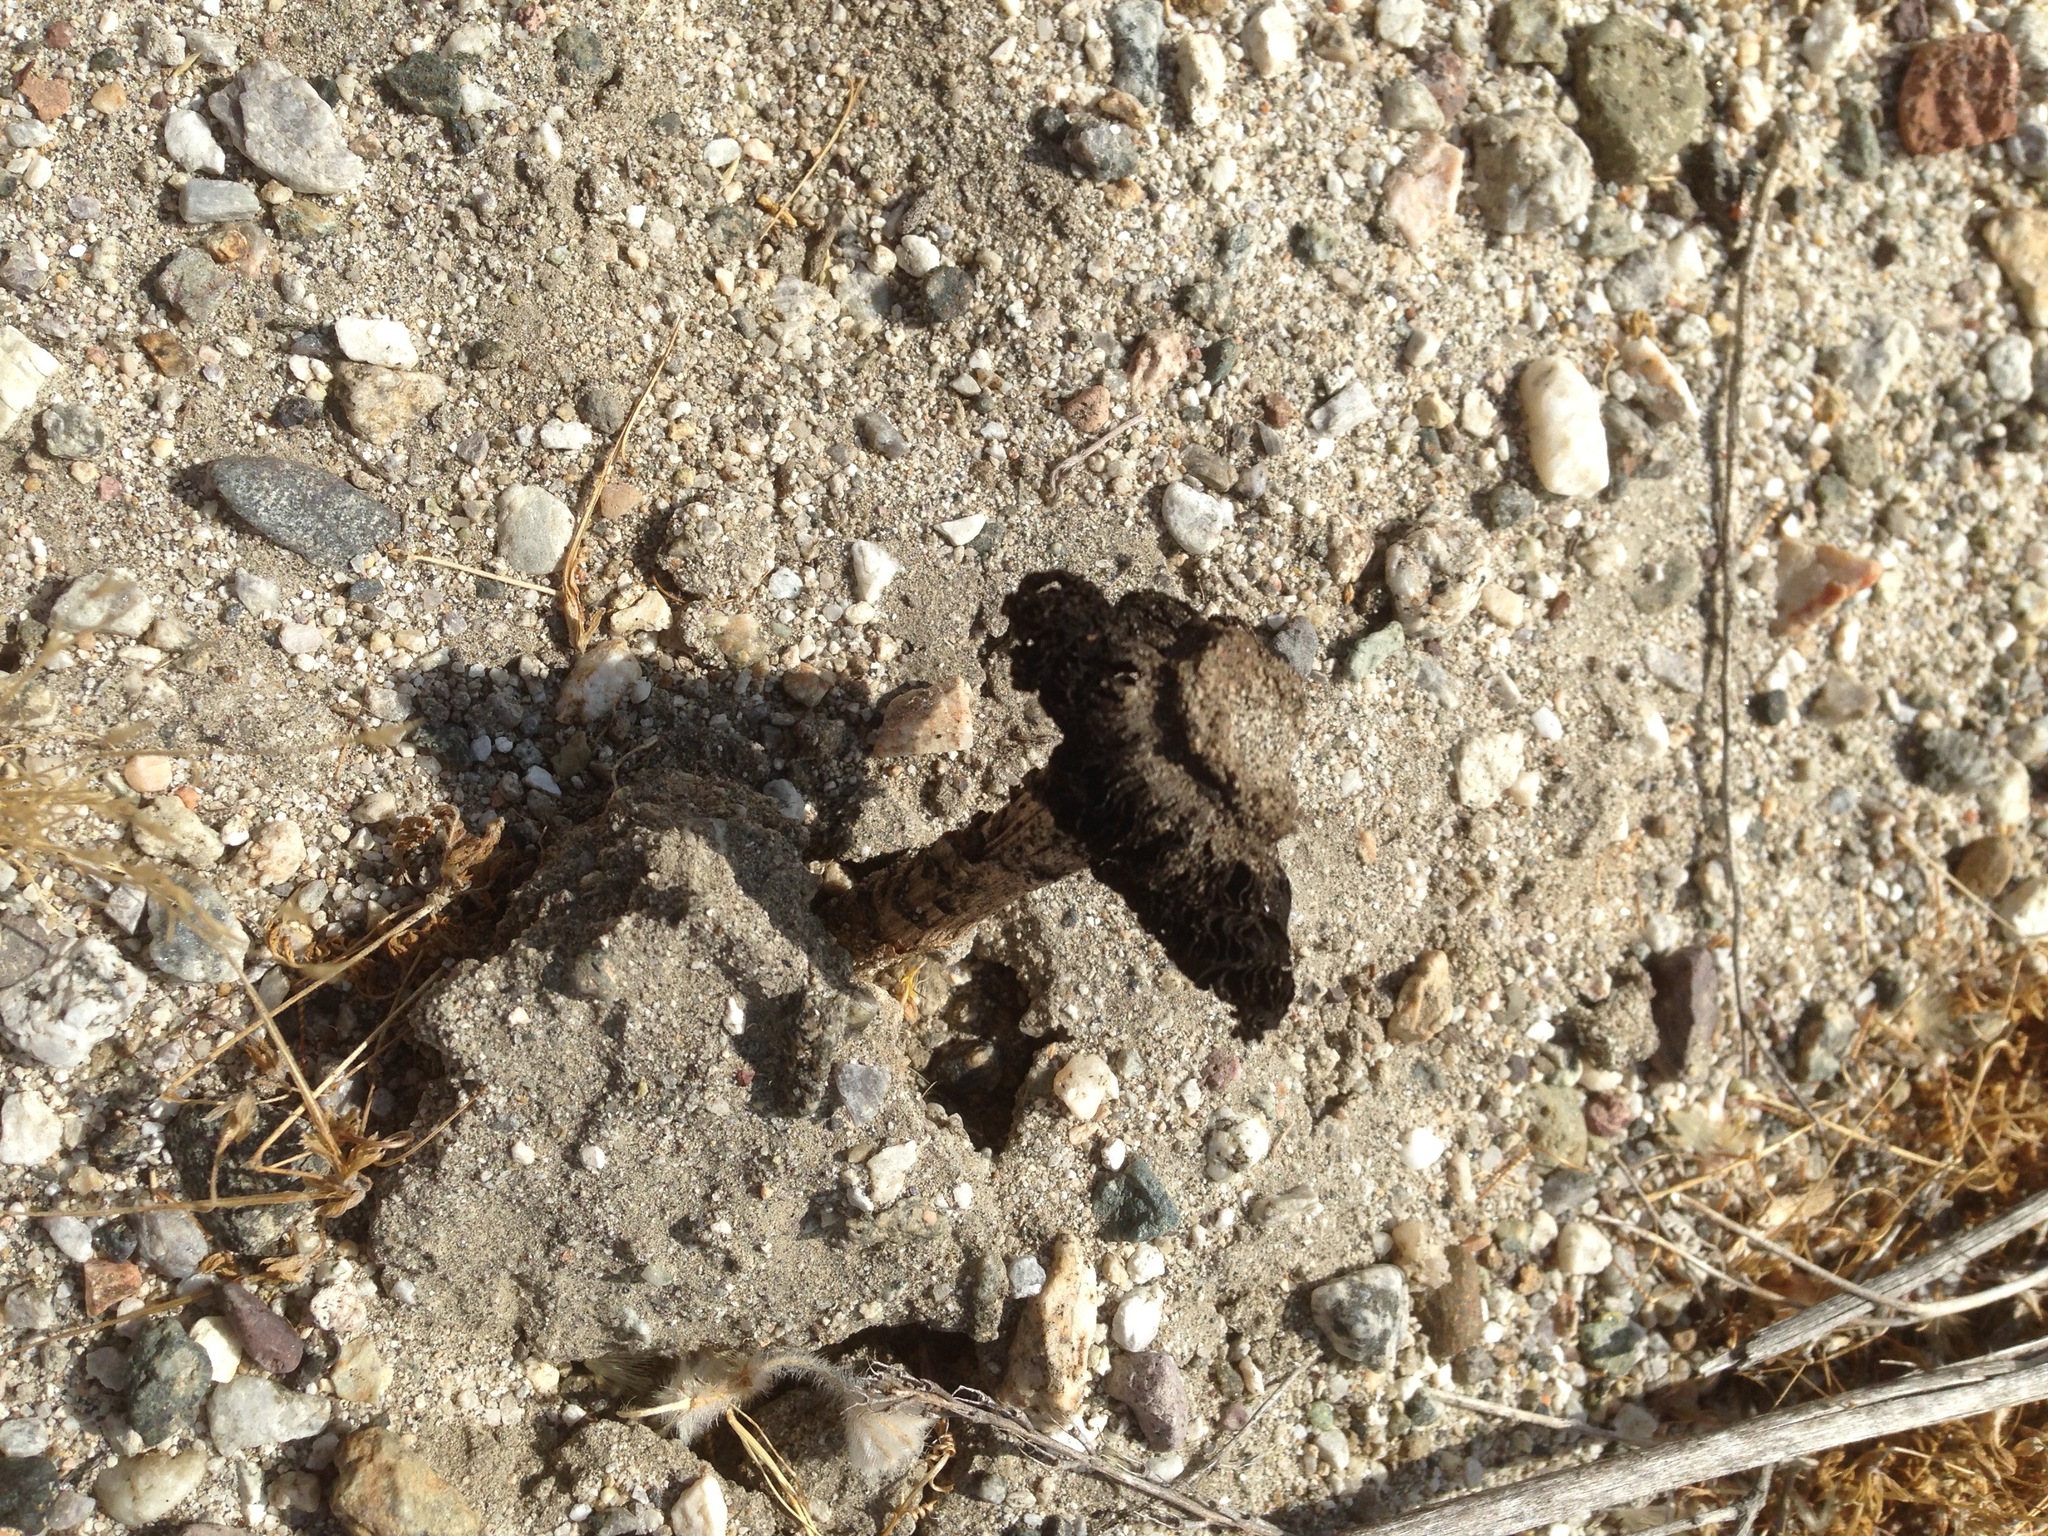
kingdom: Fungi
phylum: Basidiomycota
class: Agaricomycetes
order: Agaricales
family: Agaricaceae
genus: Montagnea
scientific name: Montagnea arenaria
